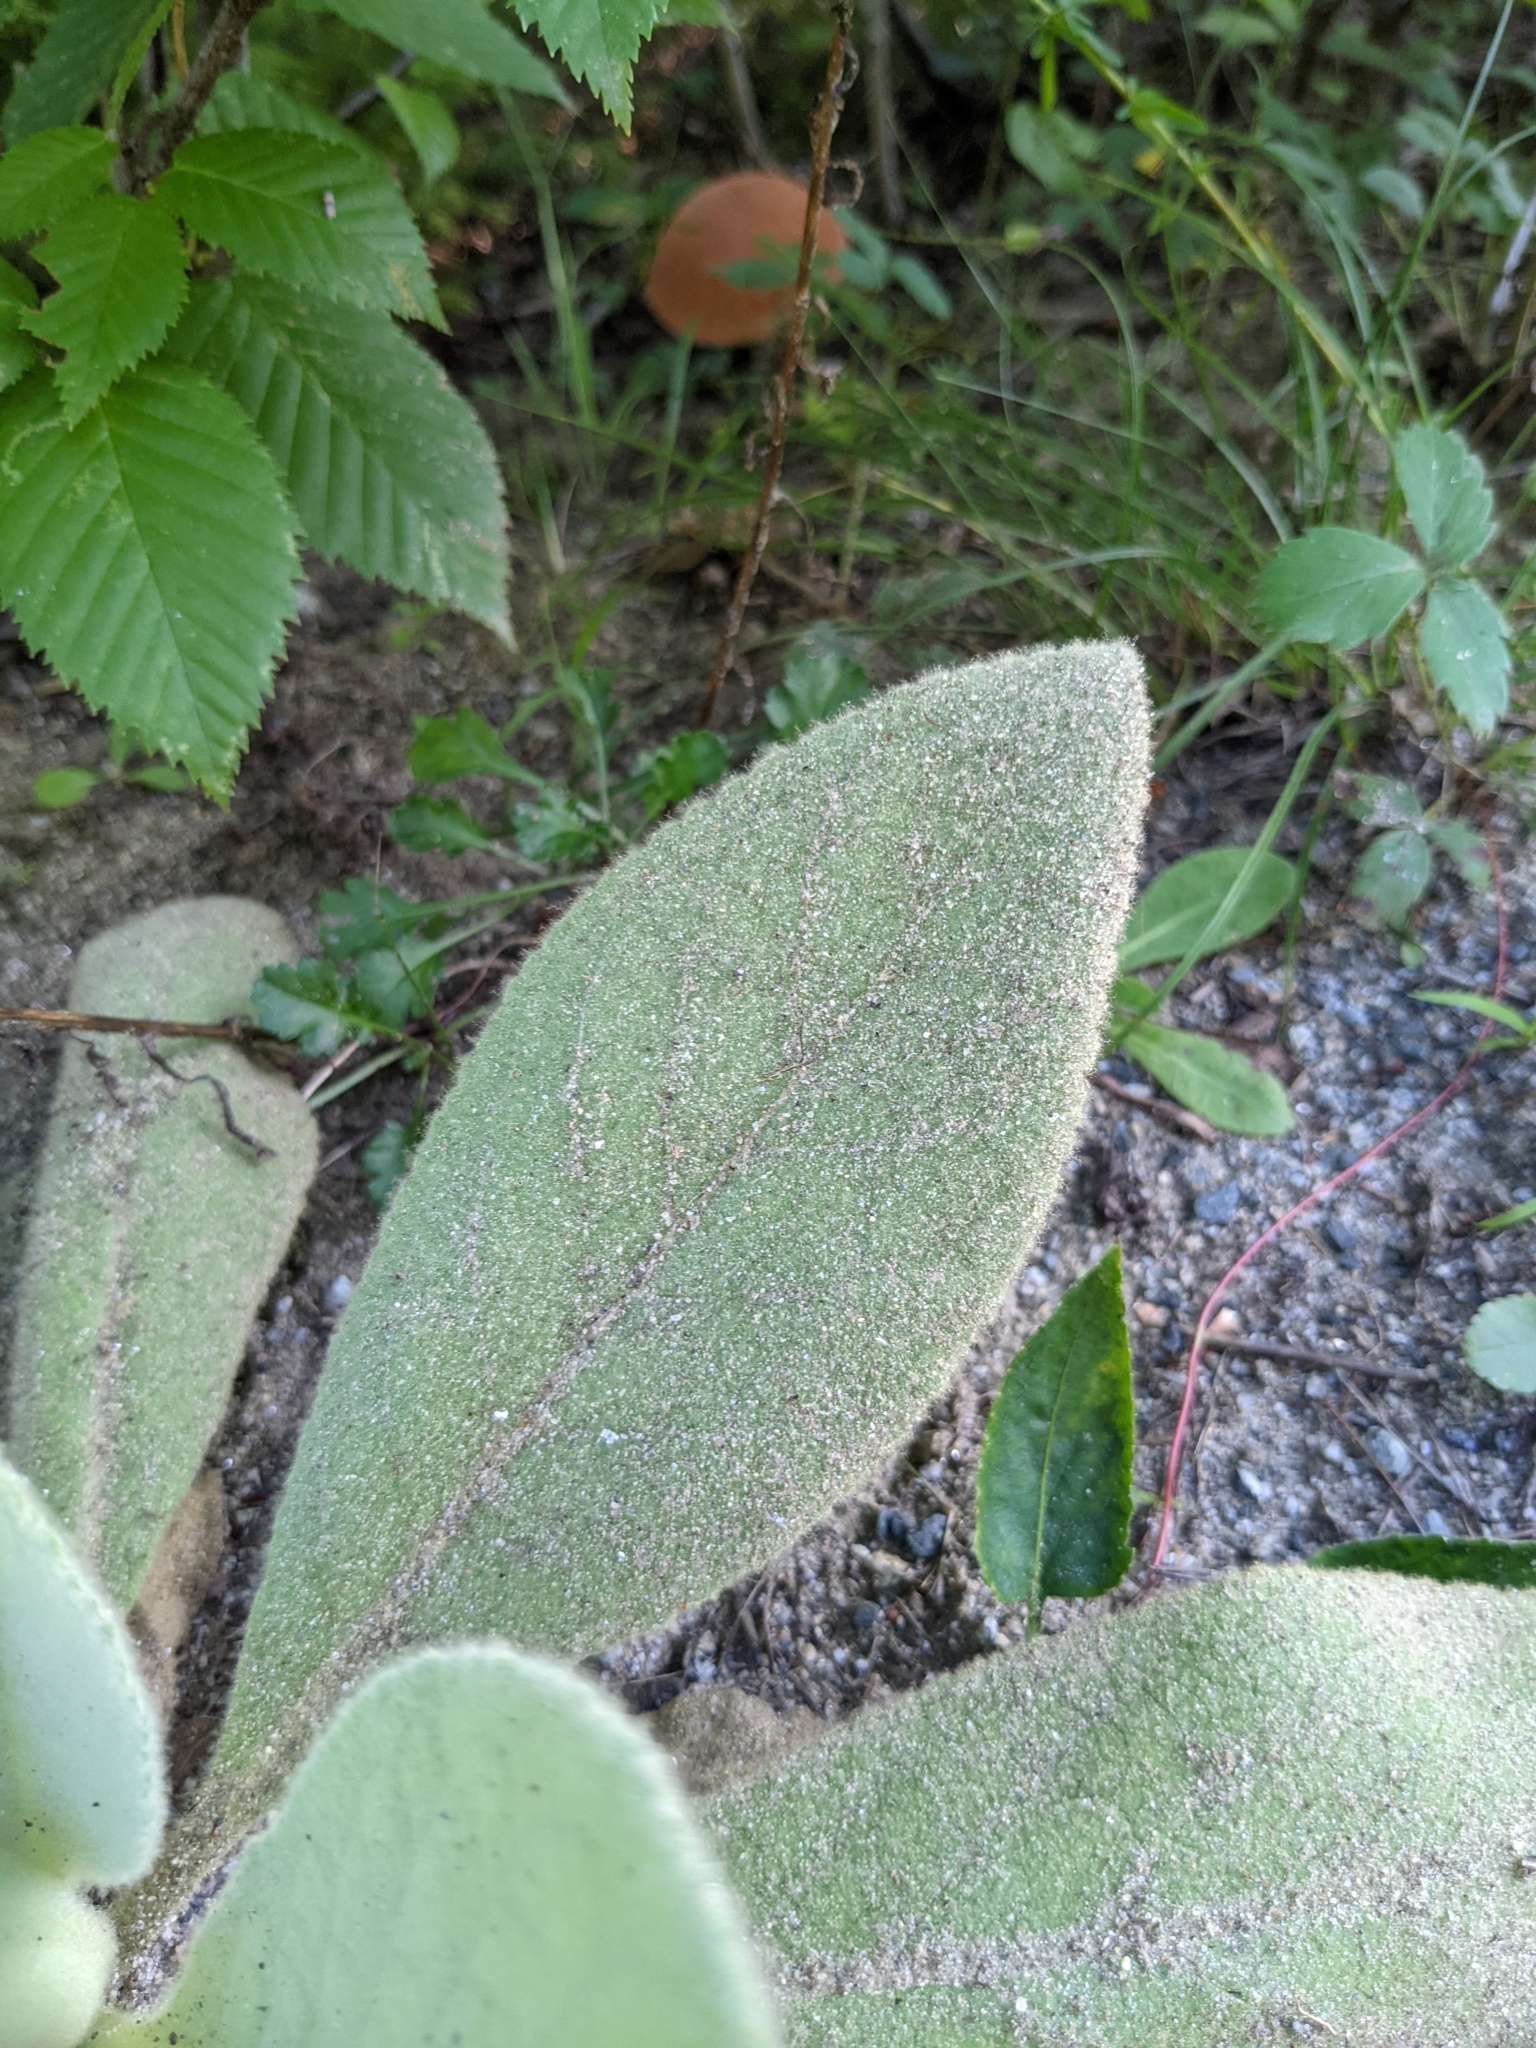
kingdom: Plantae
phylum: Tracheophyta
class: Magnoliopsida
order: Lamiales
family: Scrophulariaceae
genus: Verbascum
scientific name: Verbascum thapsus
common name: Common mullein
